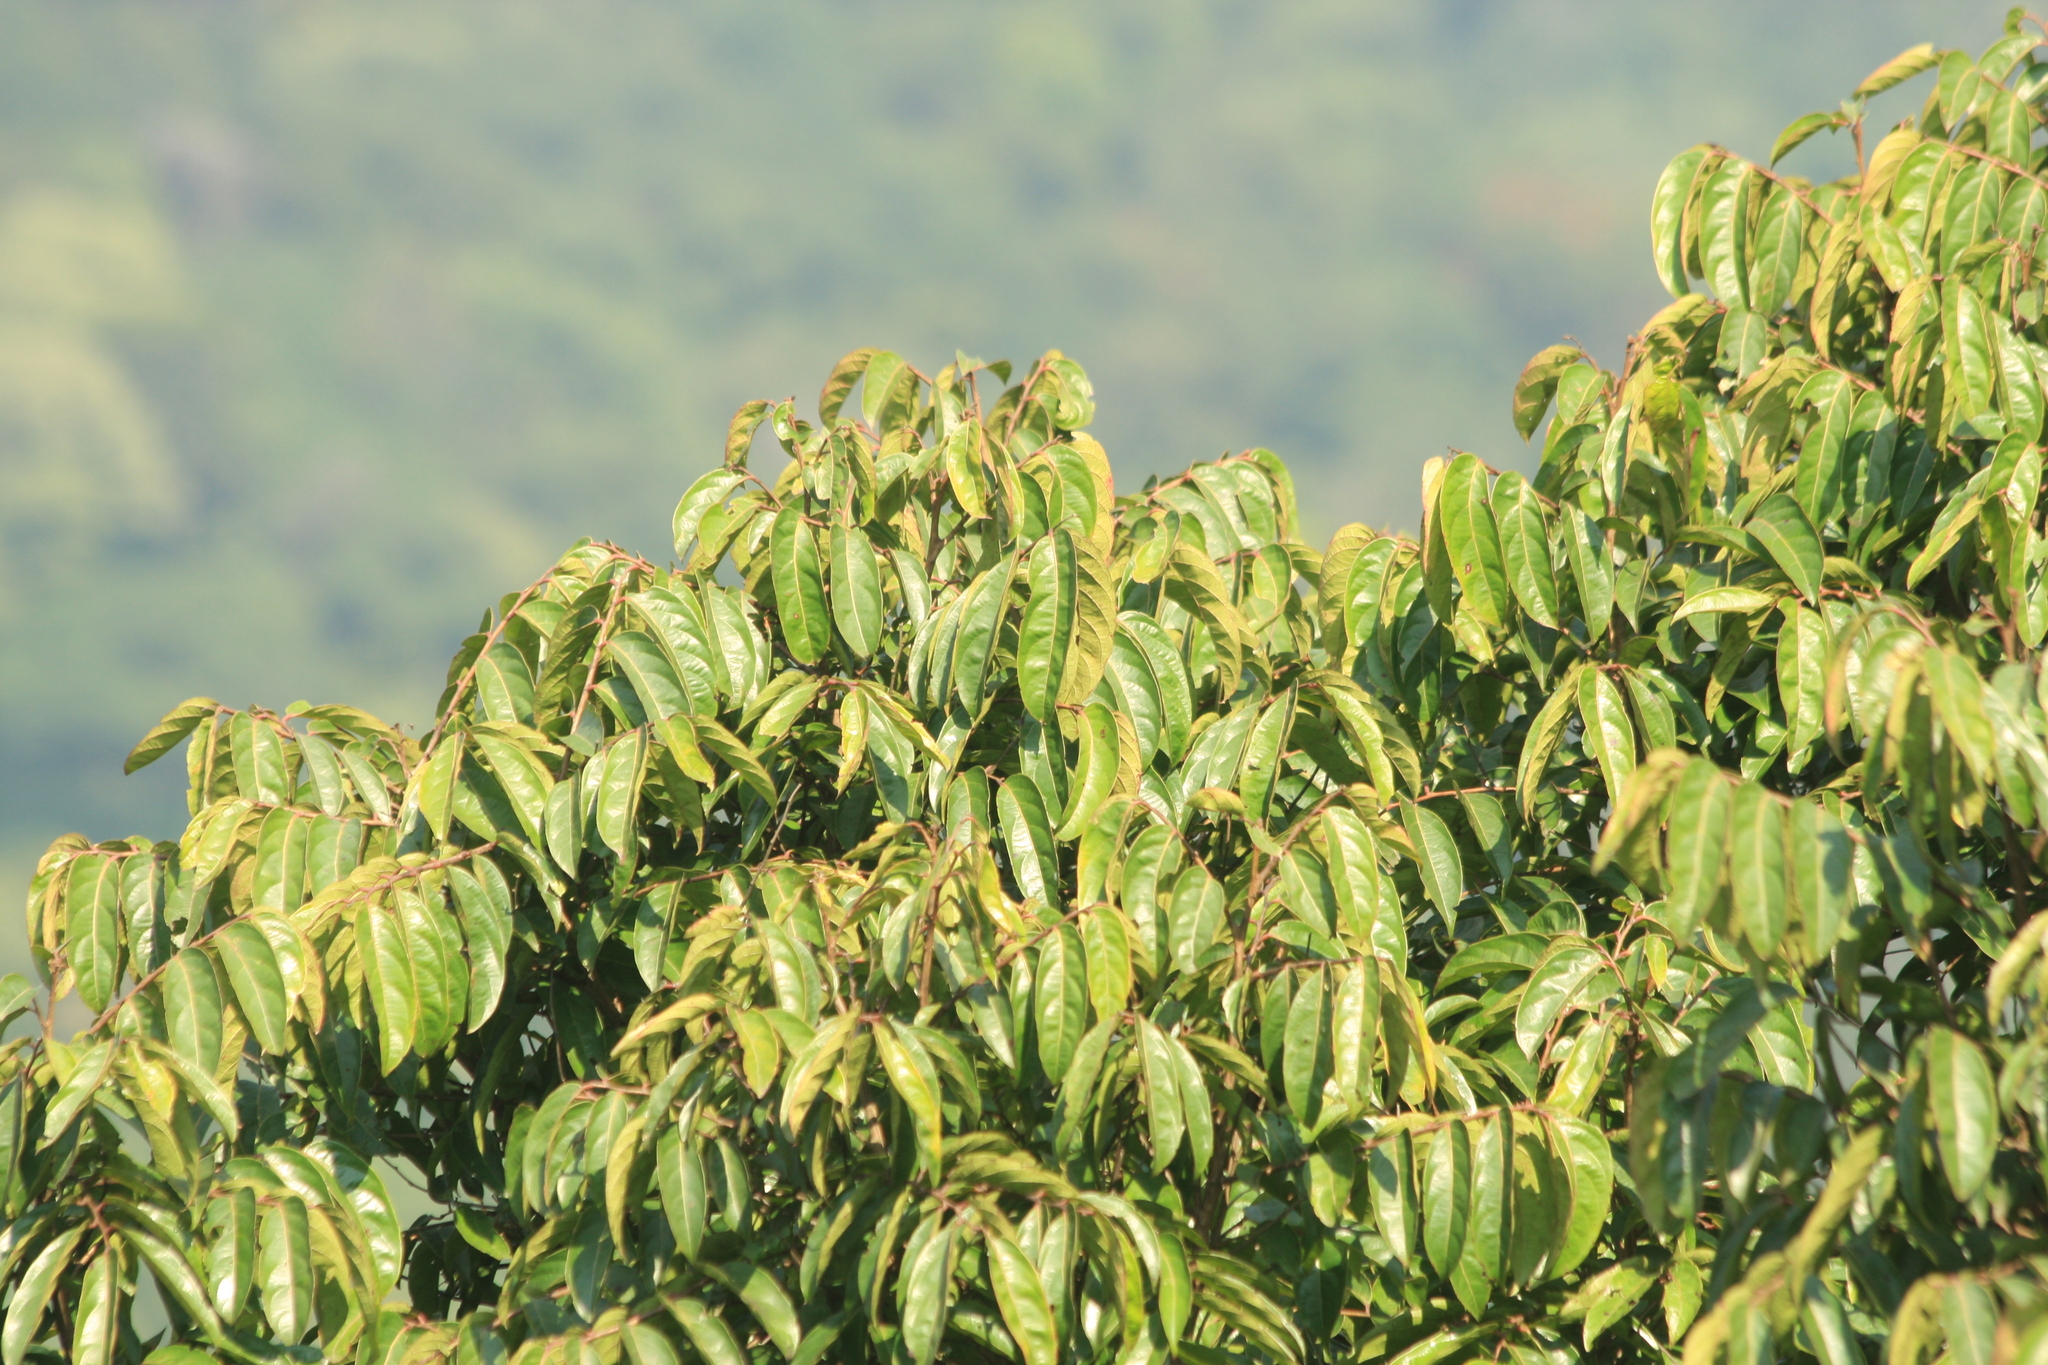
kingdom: Plantae
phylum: Tracheophyta
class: Magnoliopsida
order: Malpighiales
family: Phyllanthaceae
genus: Glochidion
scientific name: Glochidion hohenackeri
